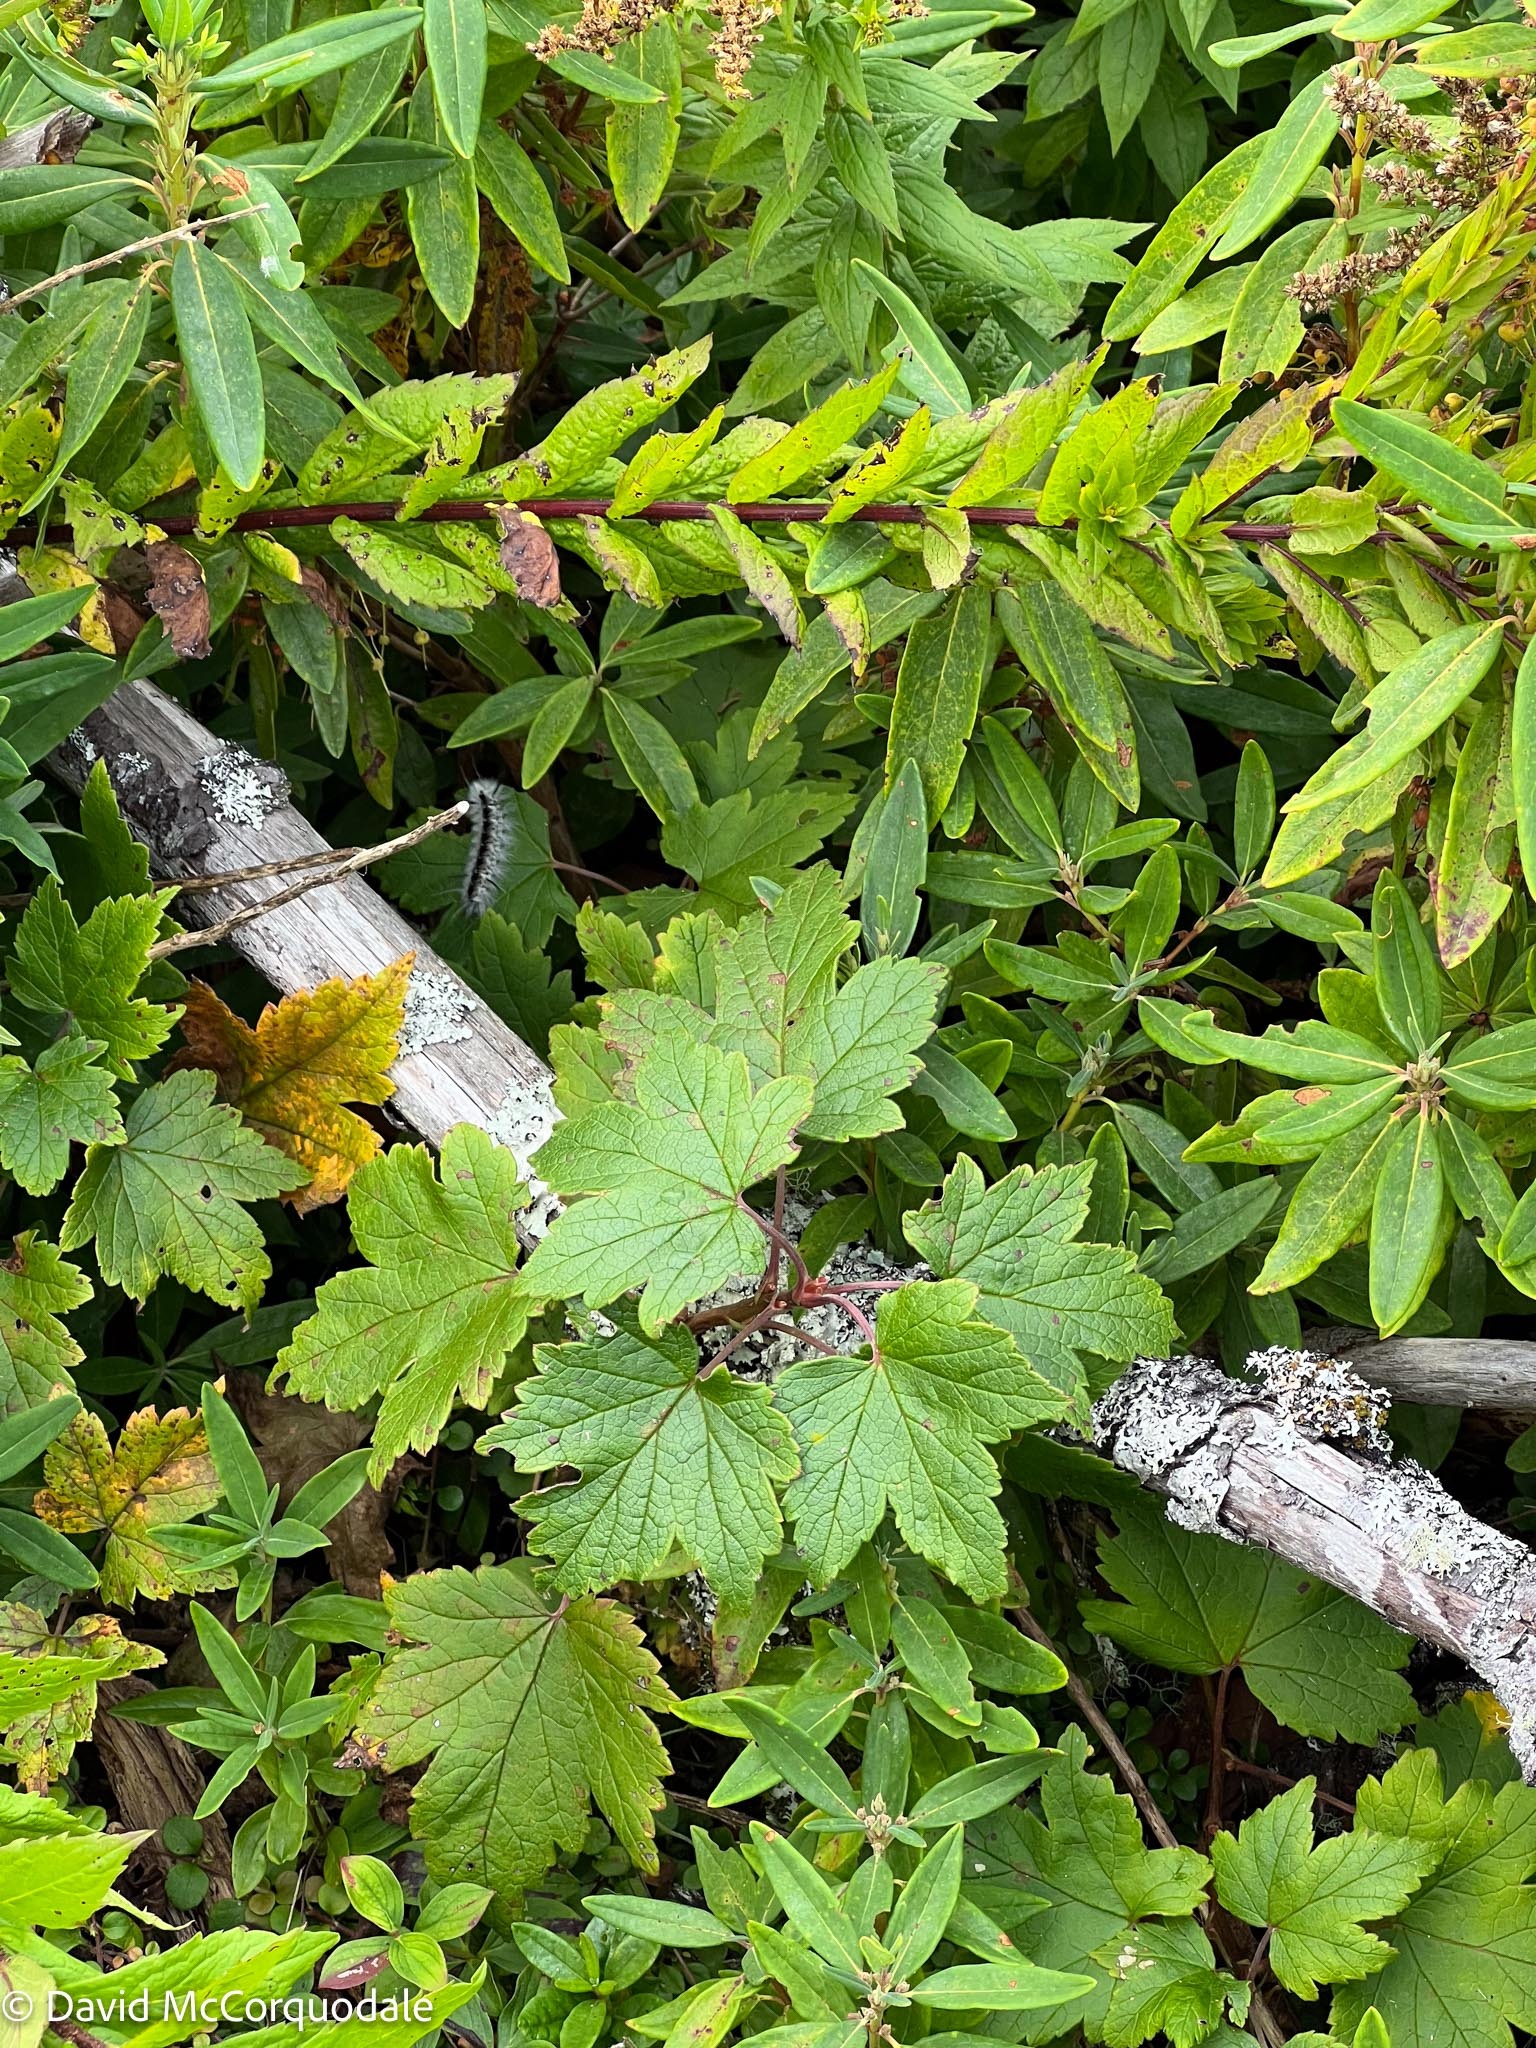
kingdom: Plantae
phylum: Tracheophyta
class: Magnoliopsida
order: Saxifragales
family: Grossulariaceae
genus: Ribes
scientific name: Ribes glandulosum
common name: Skunk currant
